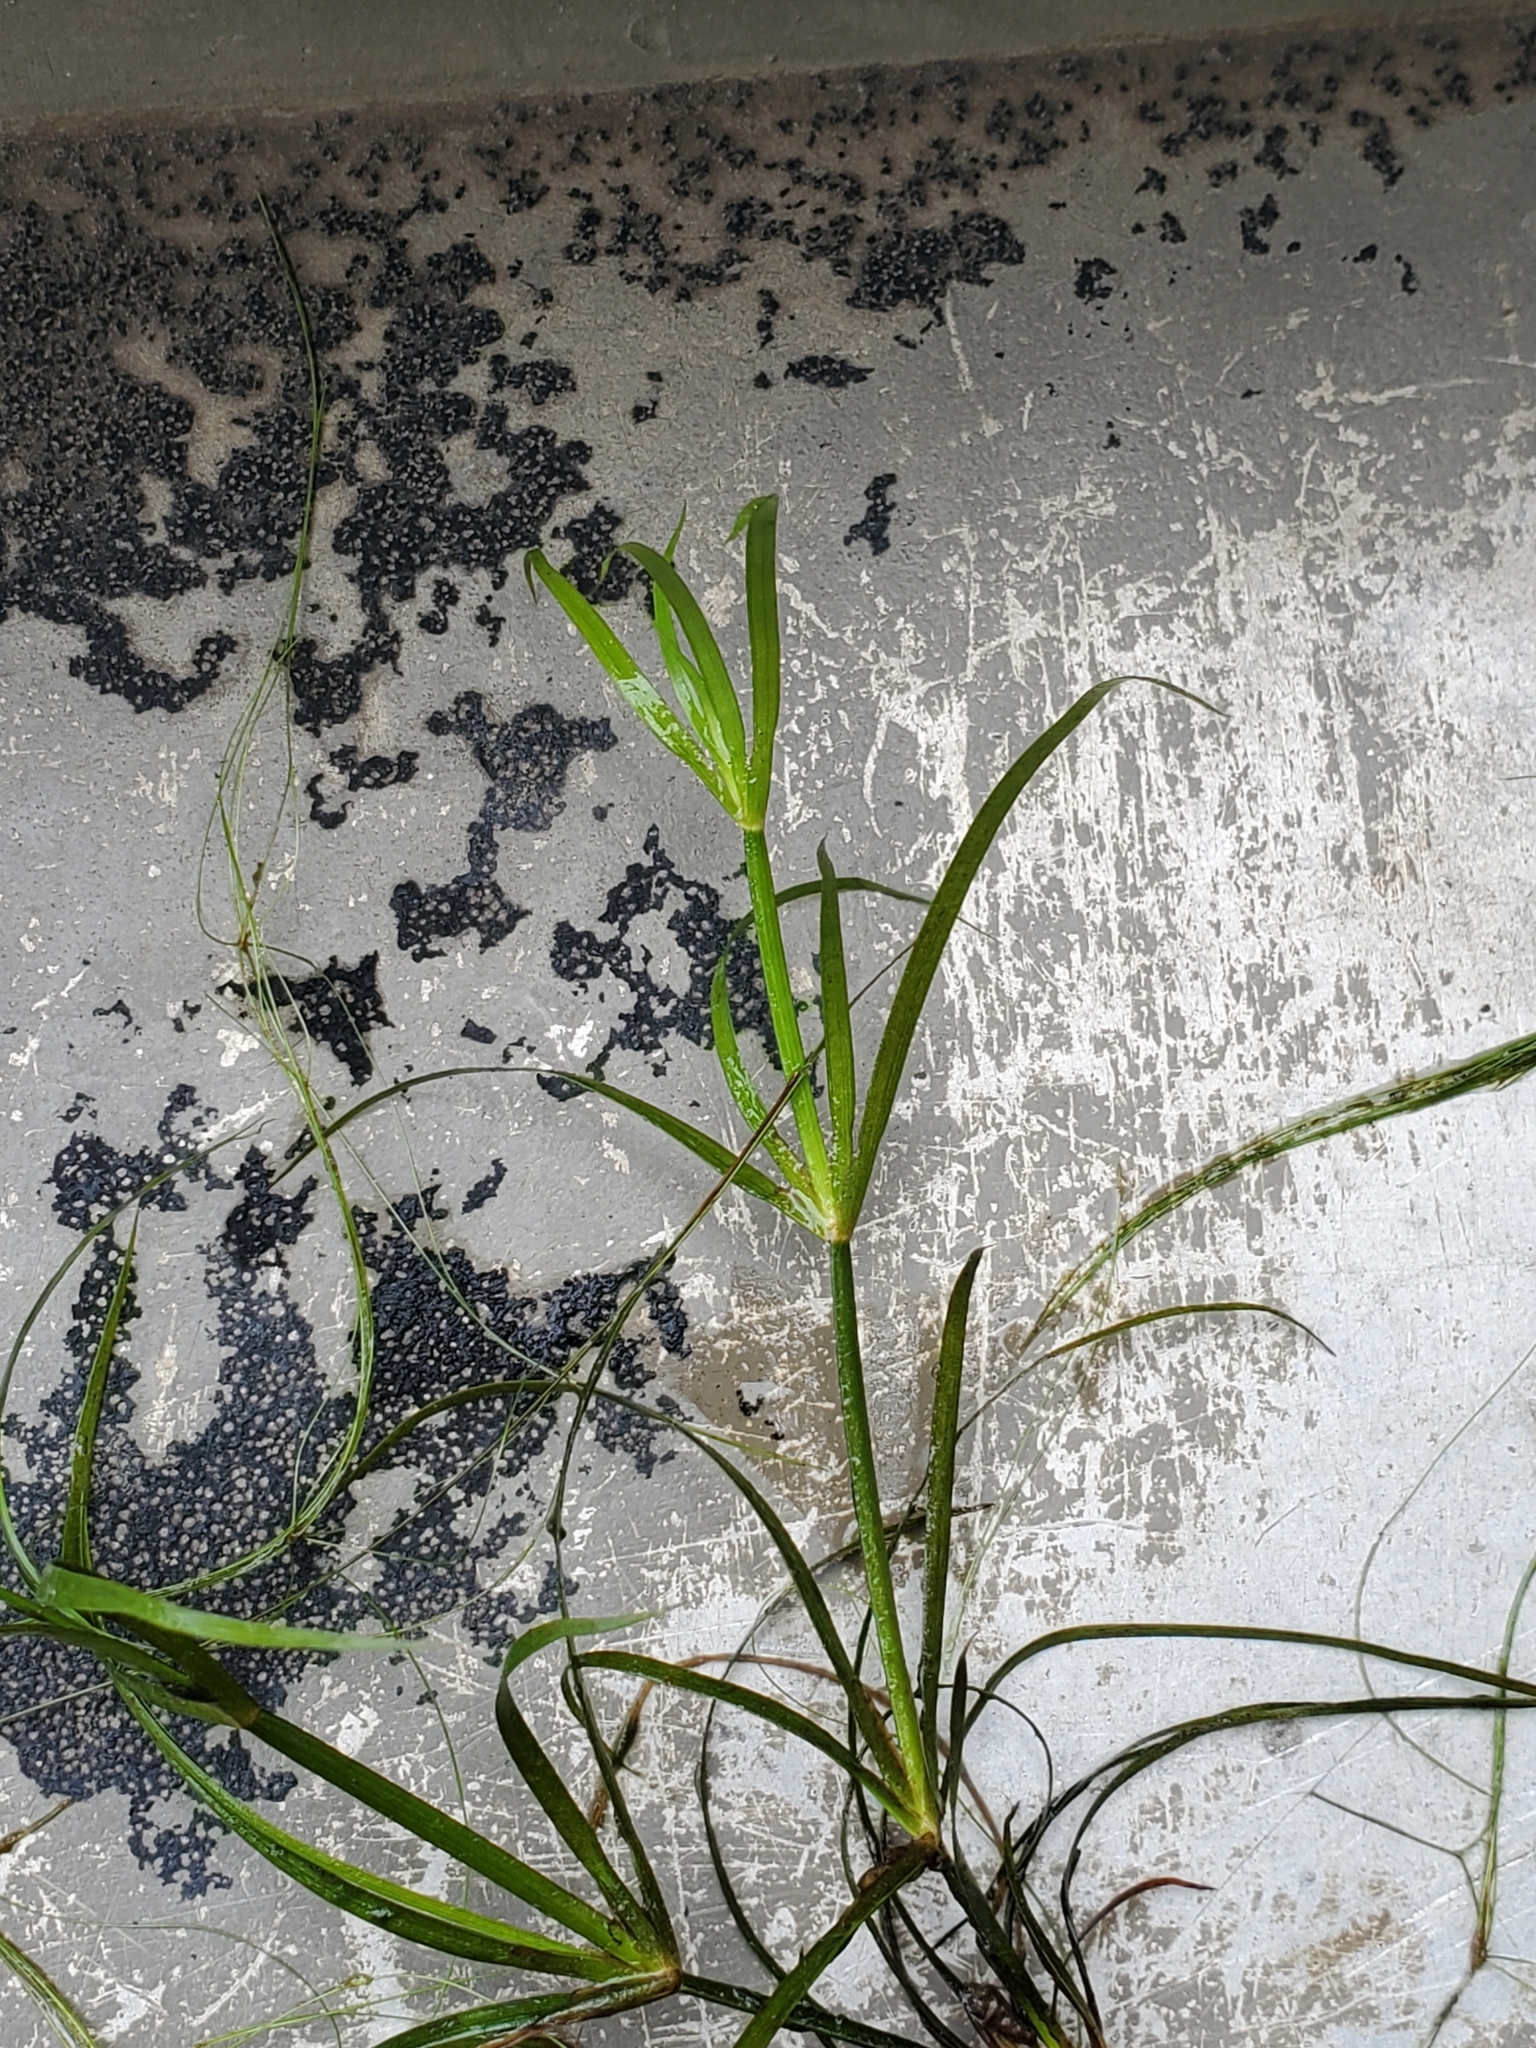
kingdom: Plantae
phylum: Tracheophyta
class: Liliopsida
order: Poales
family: Juncaceae
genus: Juncus
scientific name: Juncus repens
